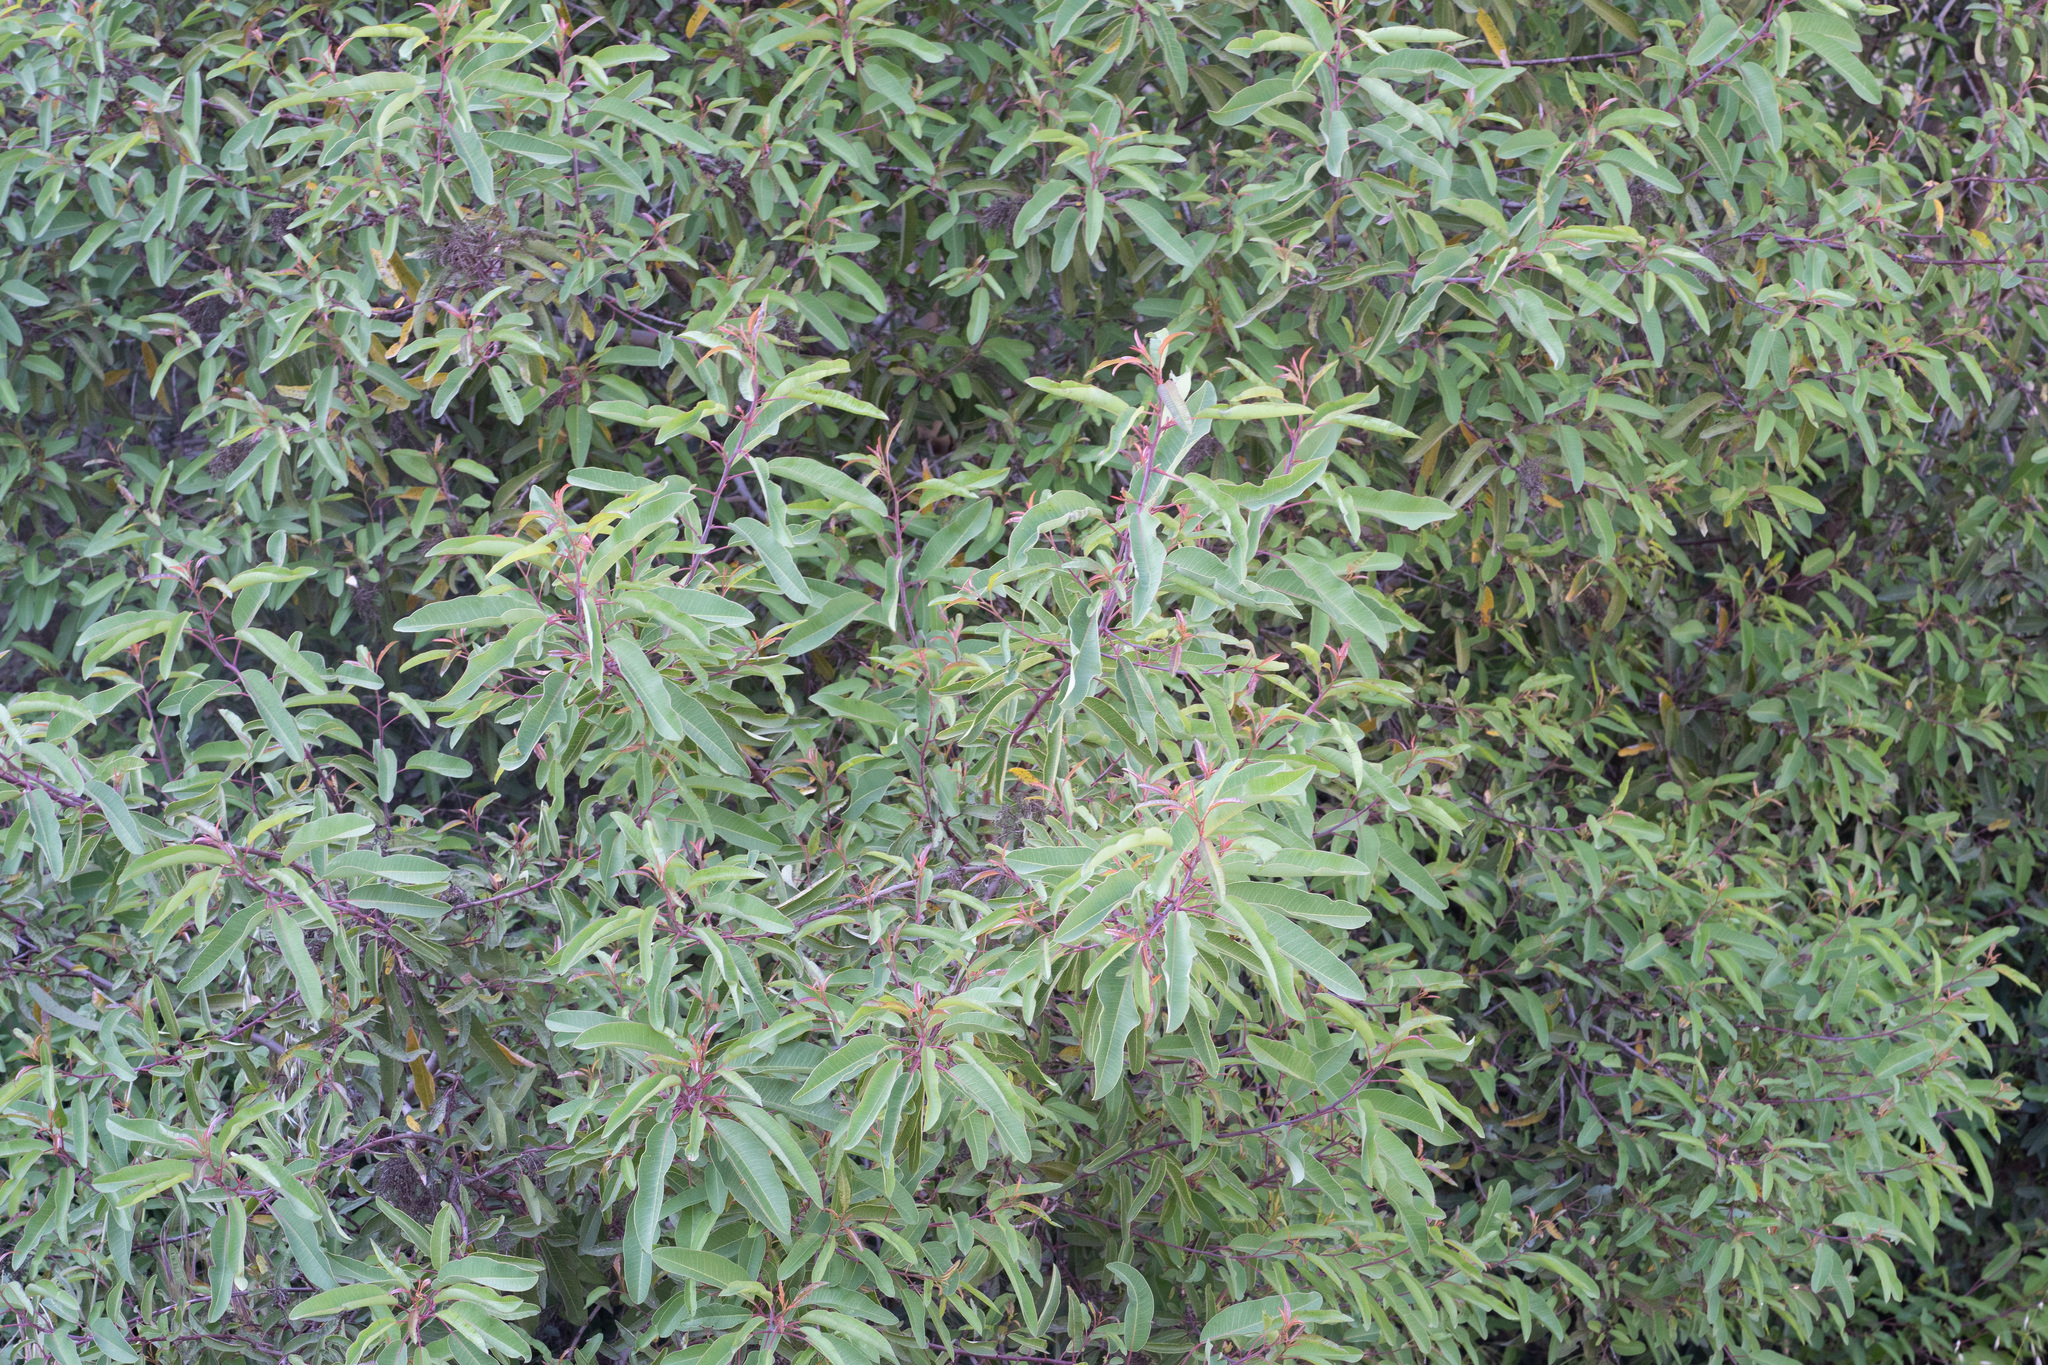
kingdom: Plantae
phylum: Tracheophyta
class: Magnoliopsida
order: Sapindales
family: Anacardiaceae
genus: Malosma
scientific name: Malosma laurina
